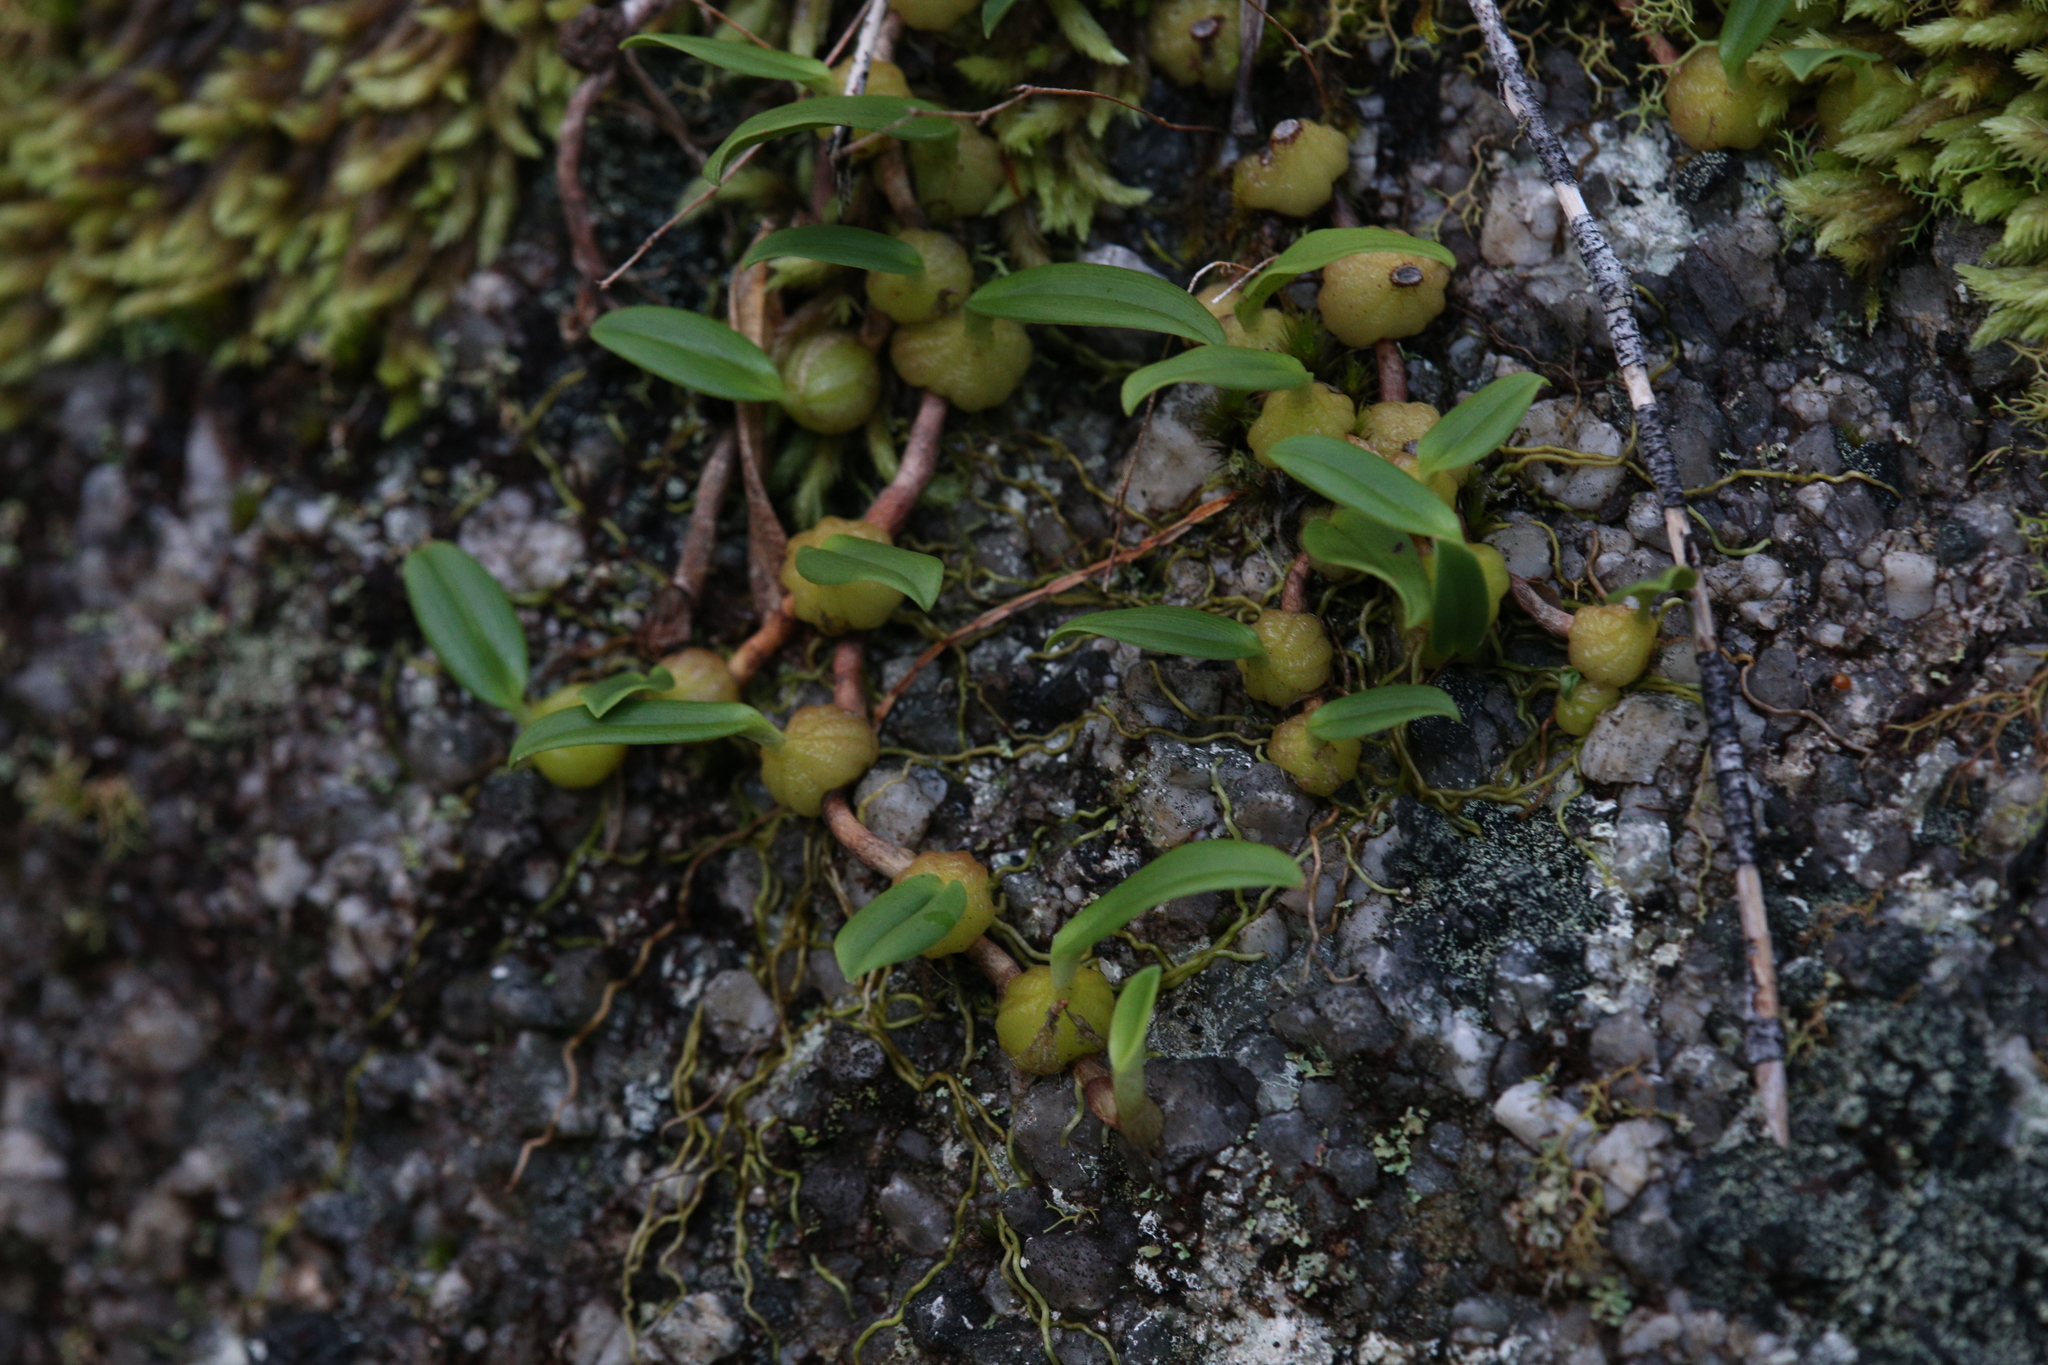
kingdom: Plantae
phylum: Tracheophyta
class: Liliopsida
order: Asparagales
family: Orchidaceae
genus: Bulbophyllum
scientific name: Bulbophyllum newportii
